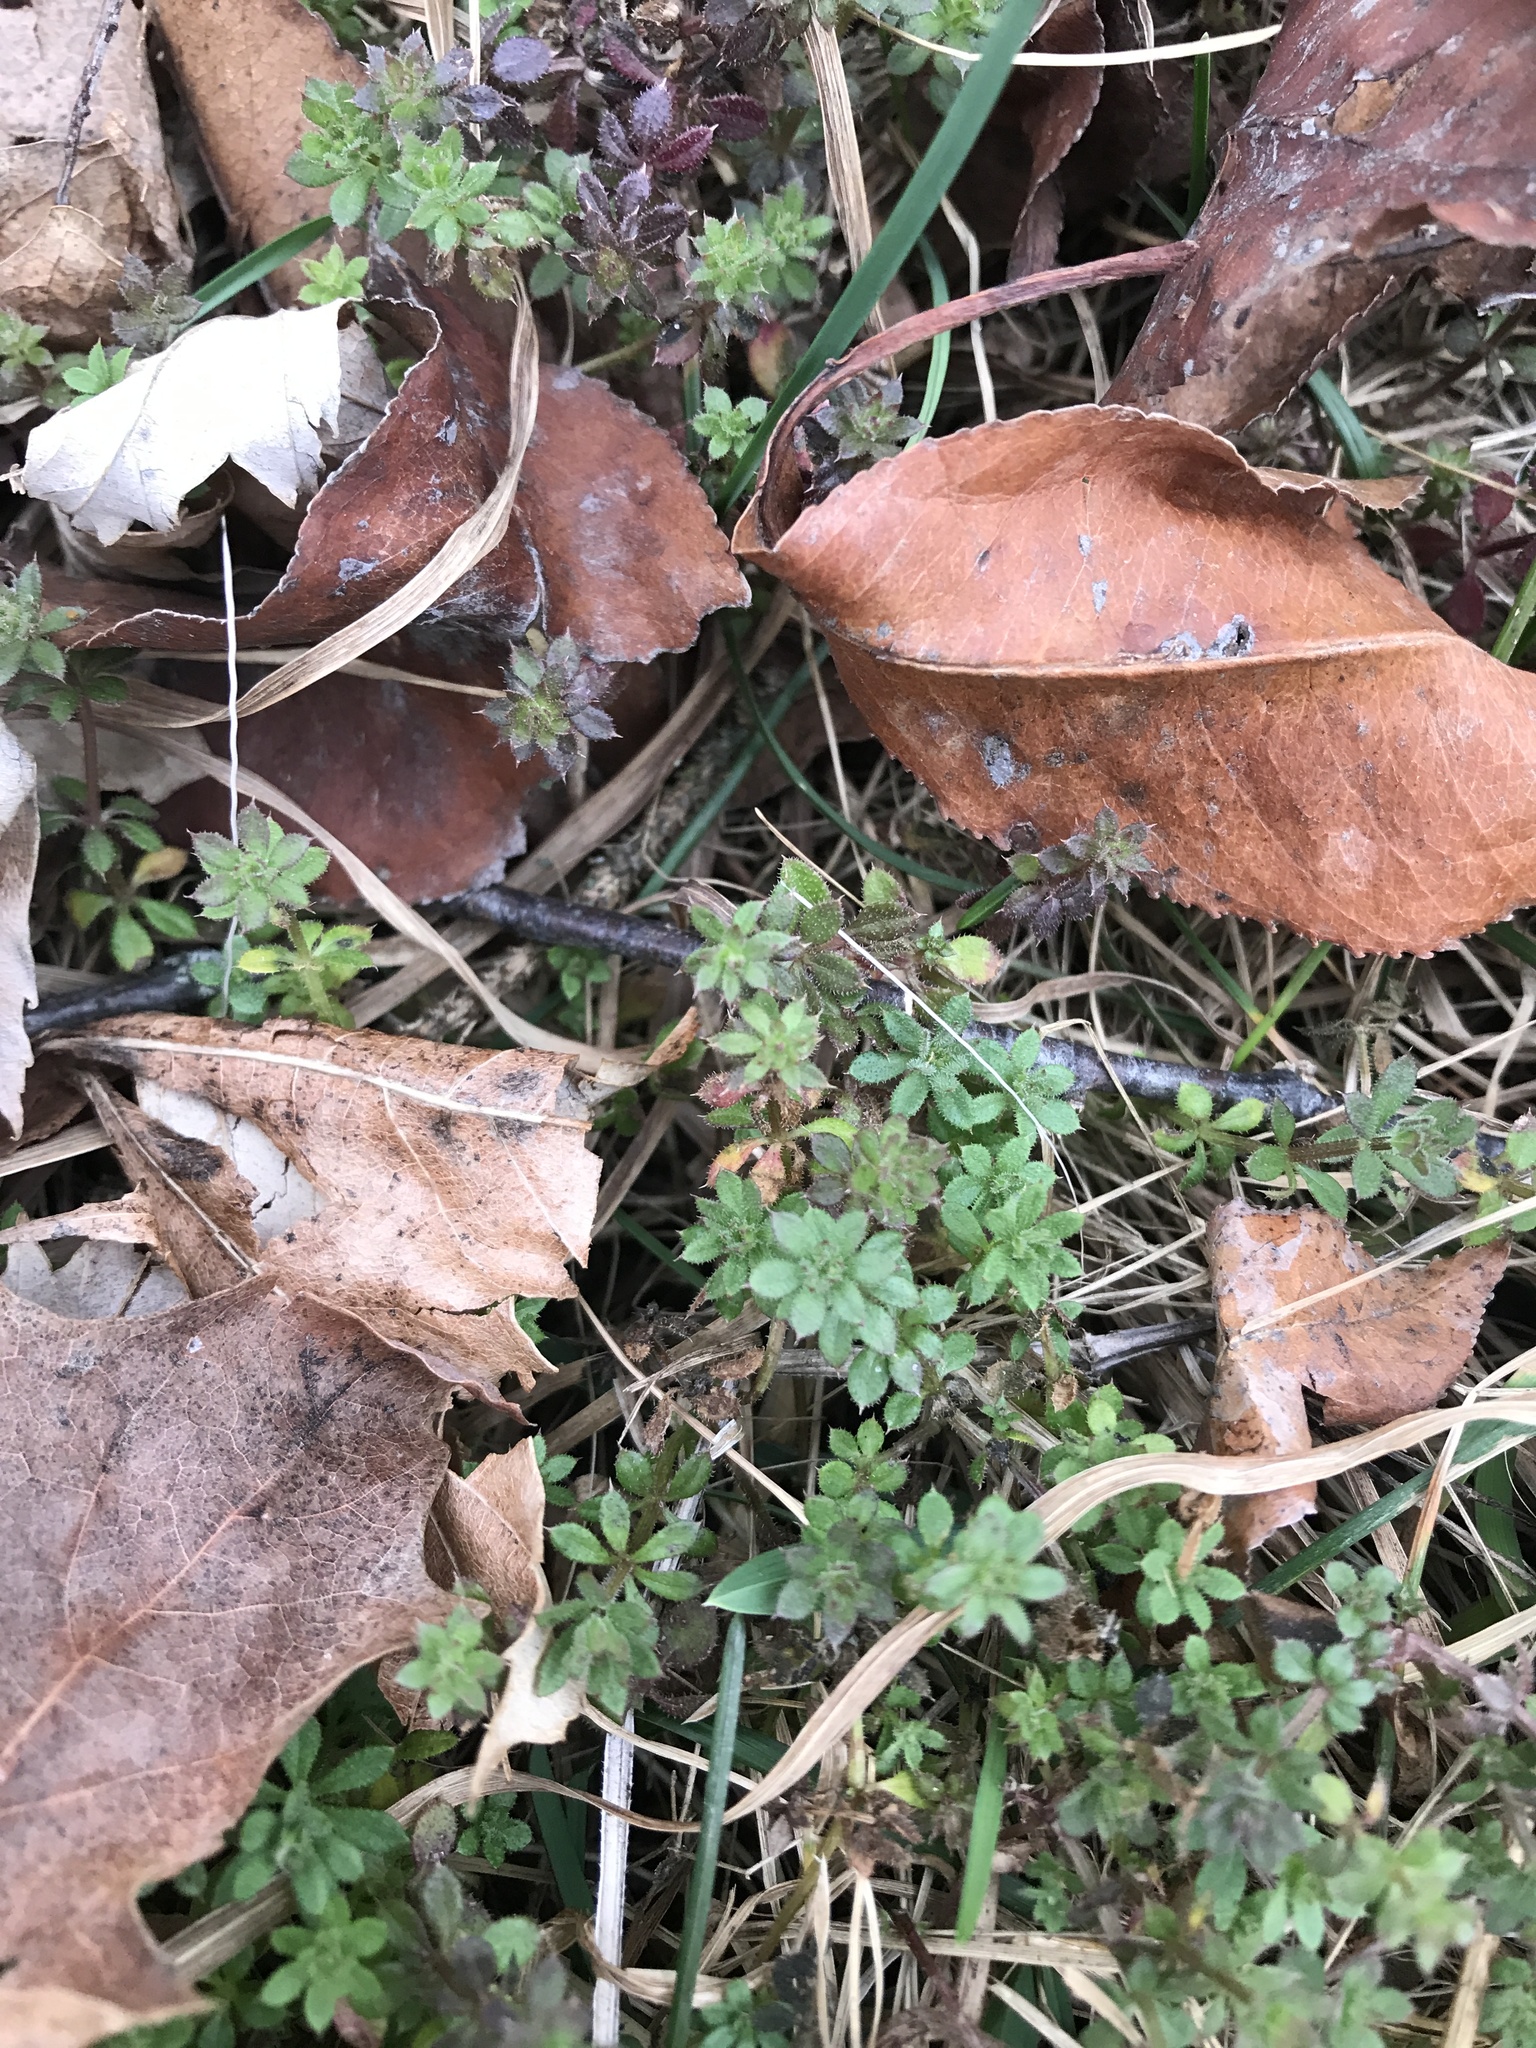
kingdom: Plantae
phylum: Tracheophyta
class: Magnoliopsida
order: Gentianales
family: Rubiaceae
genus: Galium
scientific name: Galium aparine
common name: Cleavers
